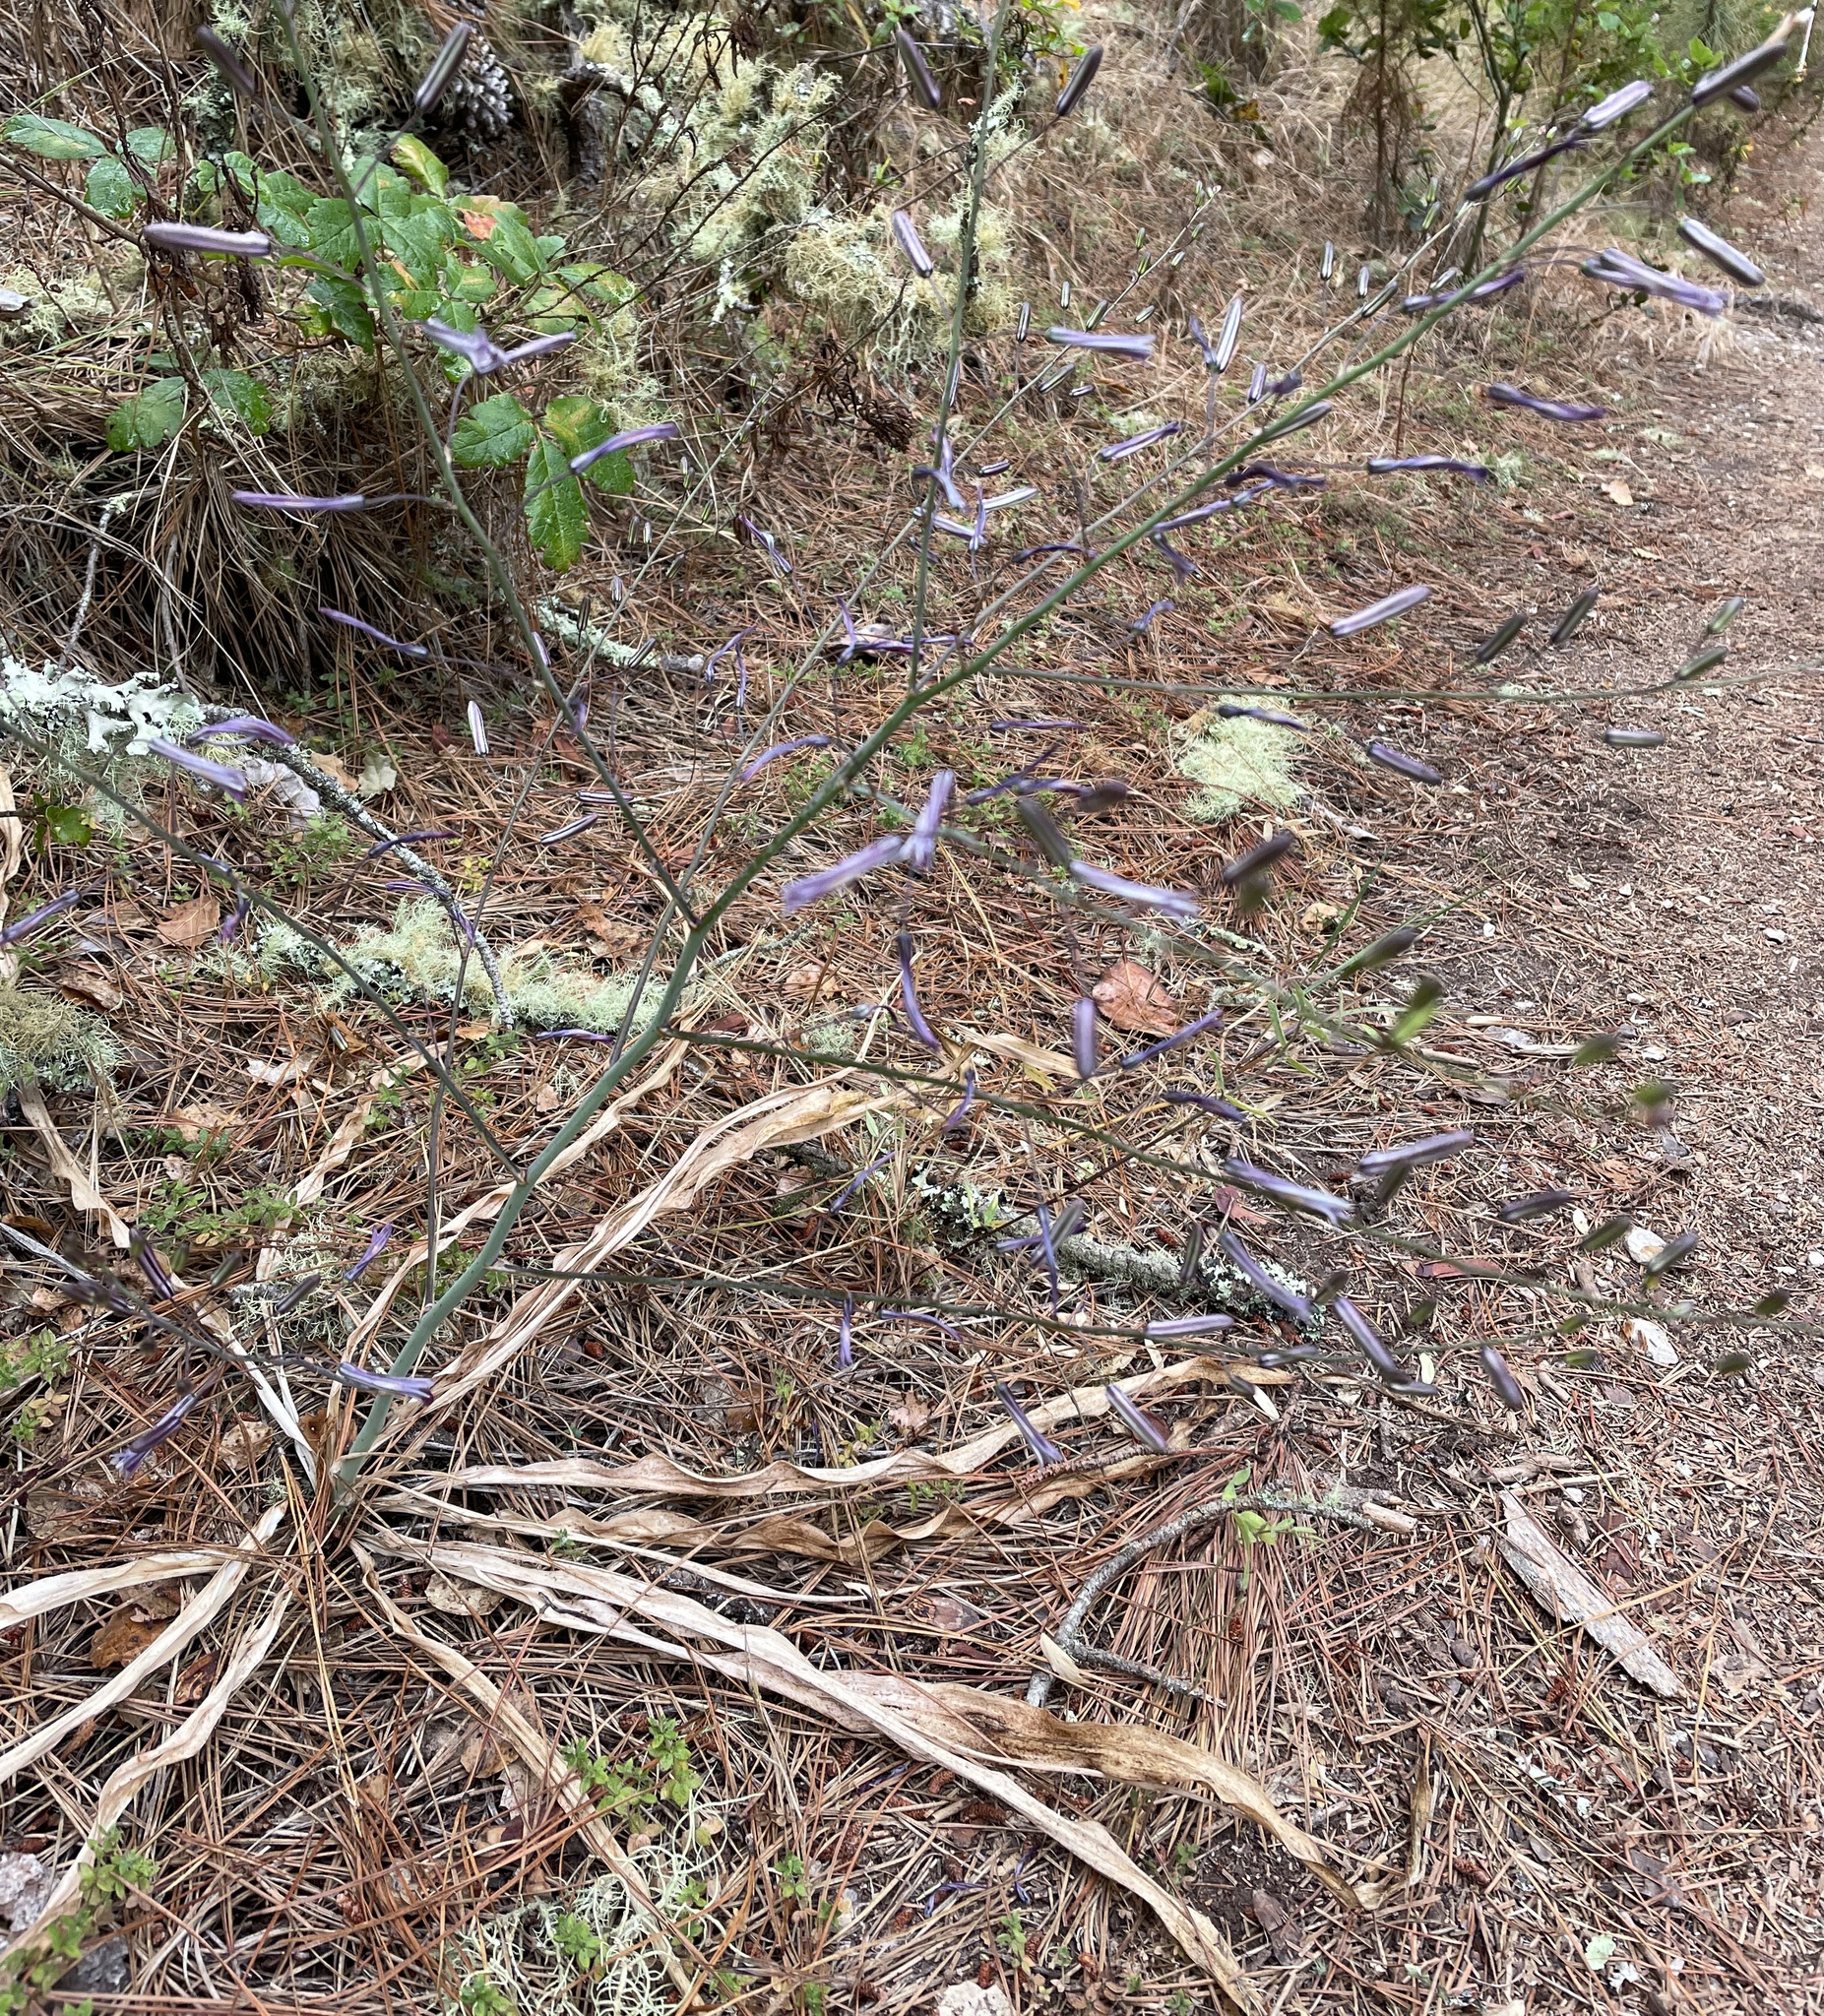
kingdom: Plantae
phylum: Tracheophyta
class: Liliopsida
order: Asparagales
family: Asparagaceae
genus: Chlorogalum
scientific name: Chlorogalum pomeridianum
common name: Amole
